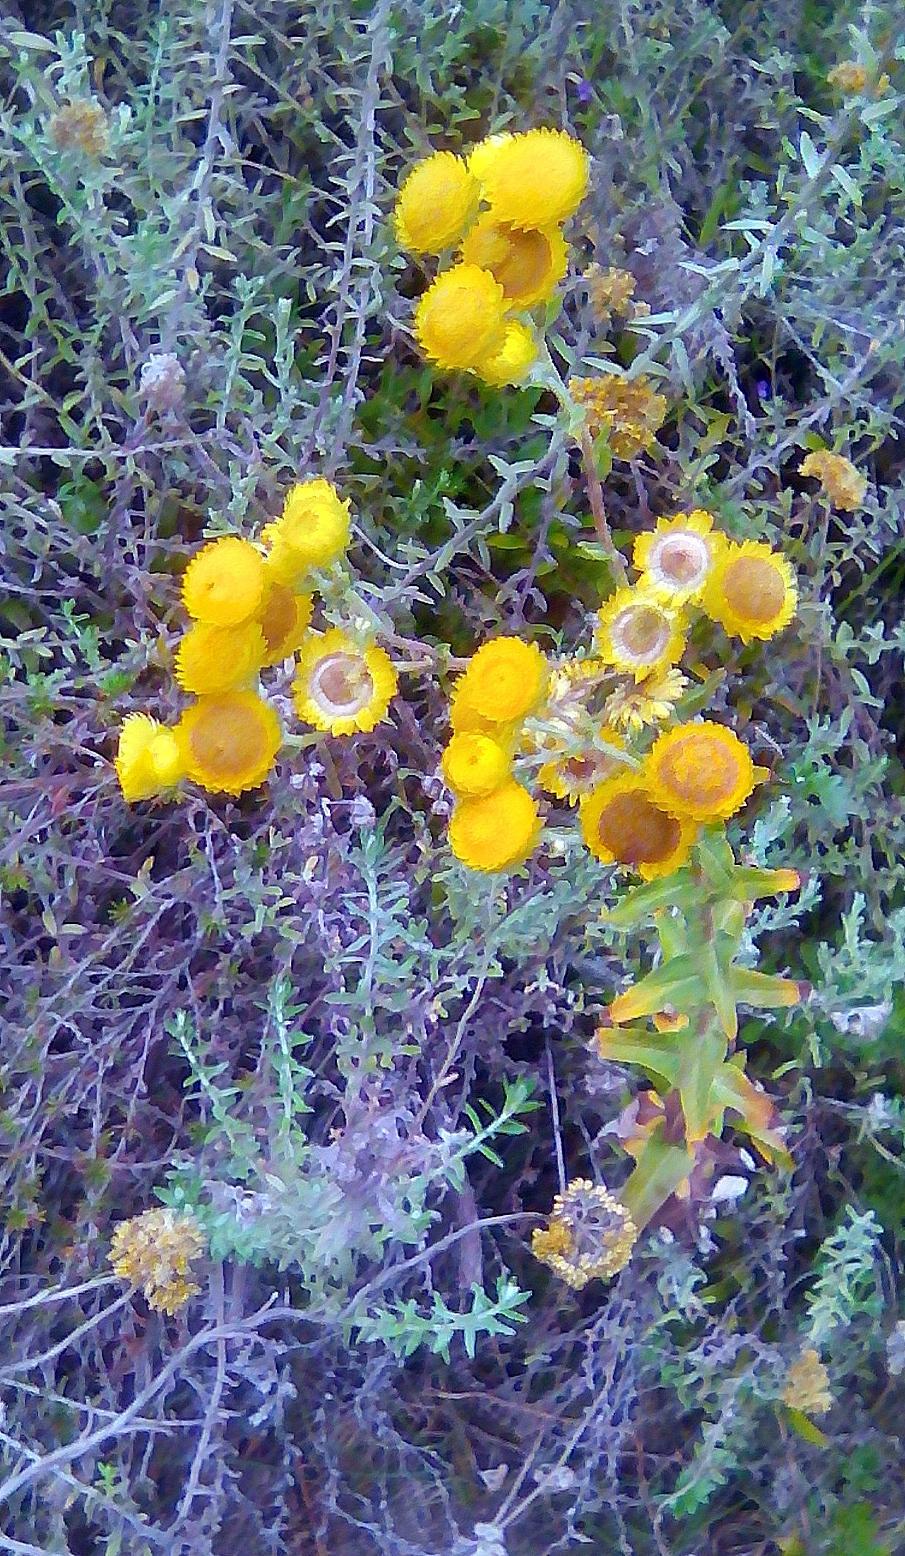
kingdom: Plantae
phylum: Tracheophyta
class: Magnoliopsida
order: Asterales
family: Asteraceae
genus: Helichrysum
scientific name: Helichrysum foetidum
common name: Stinking everlasting
